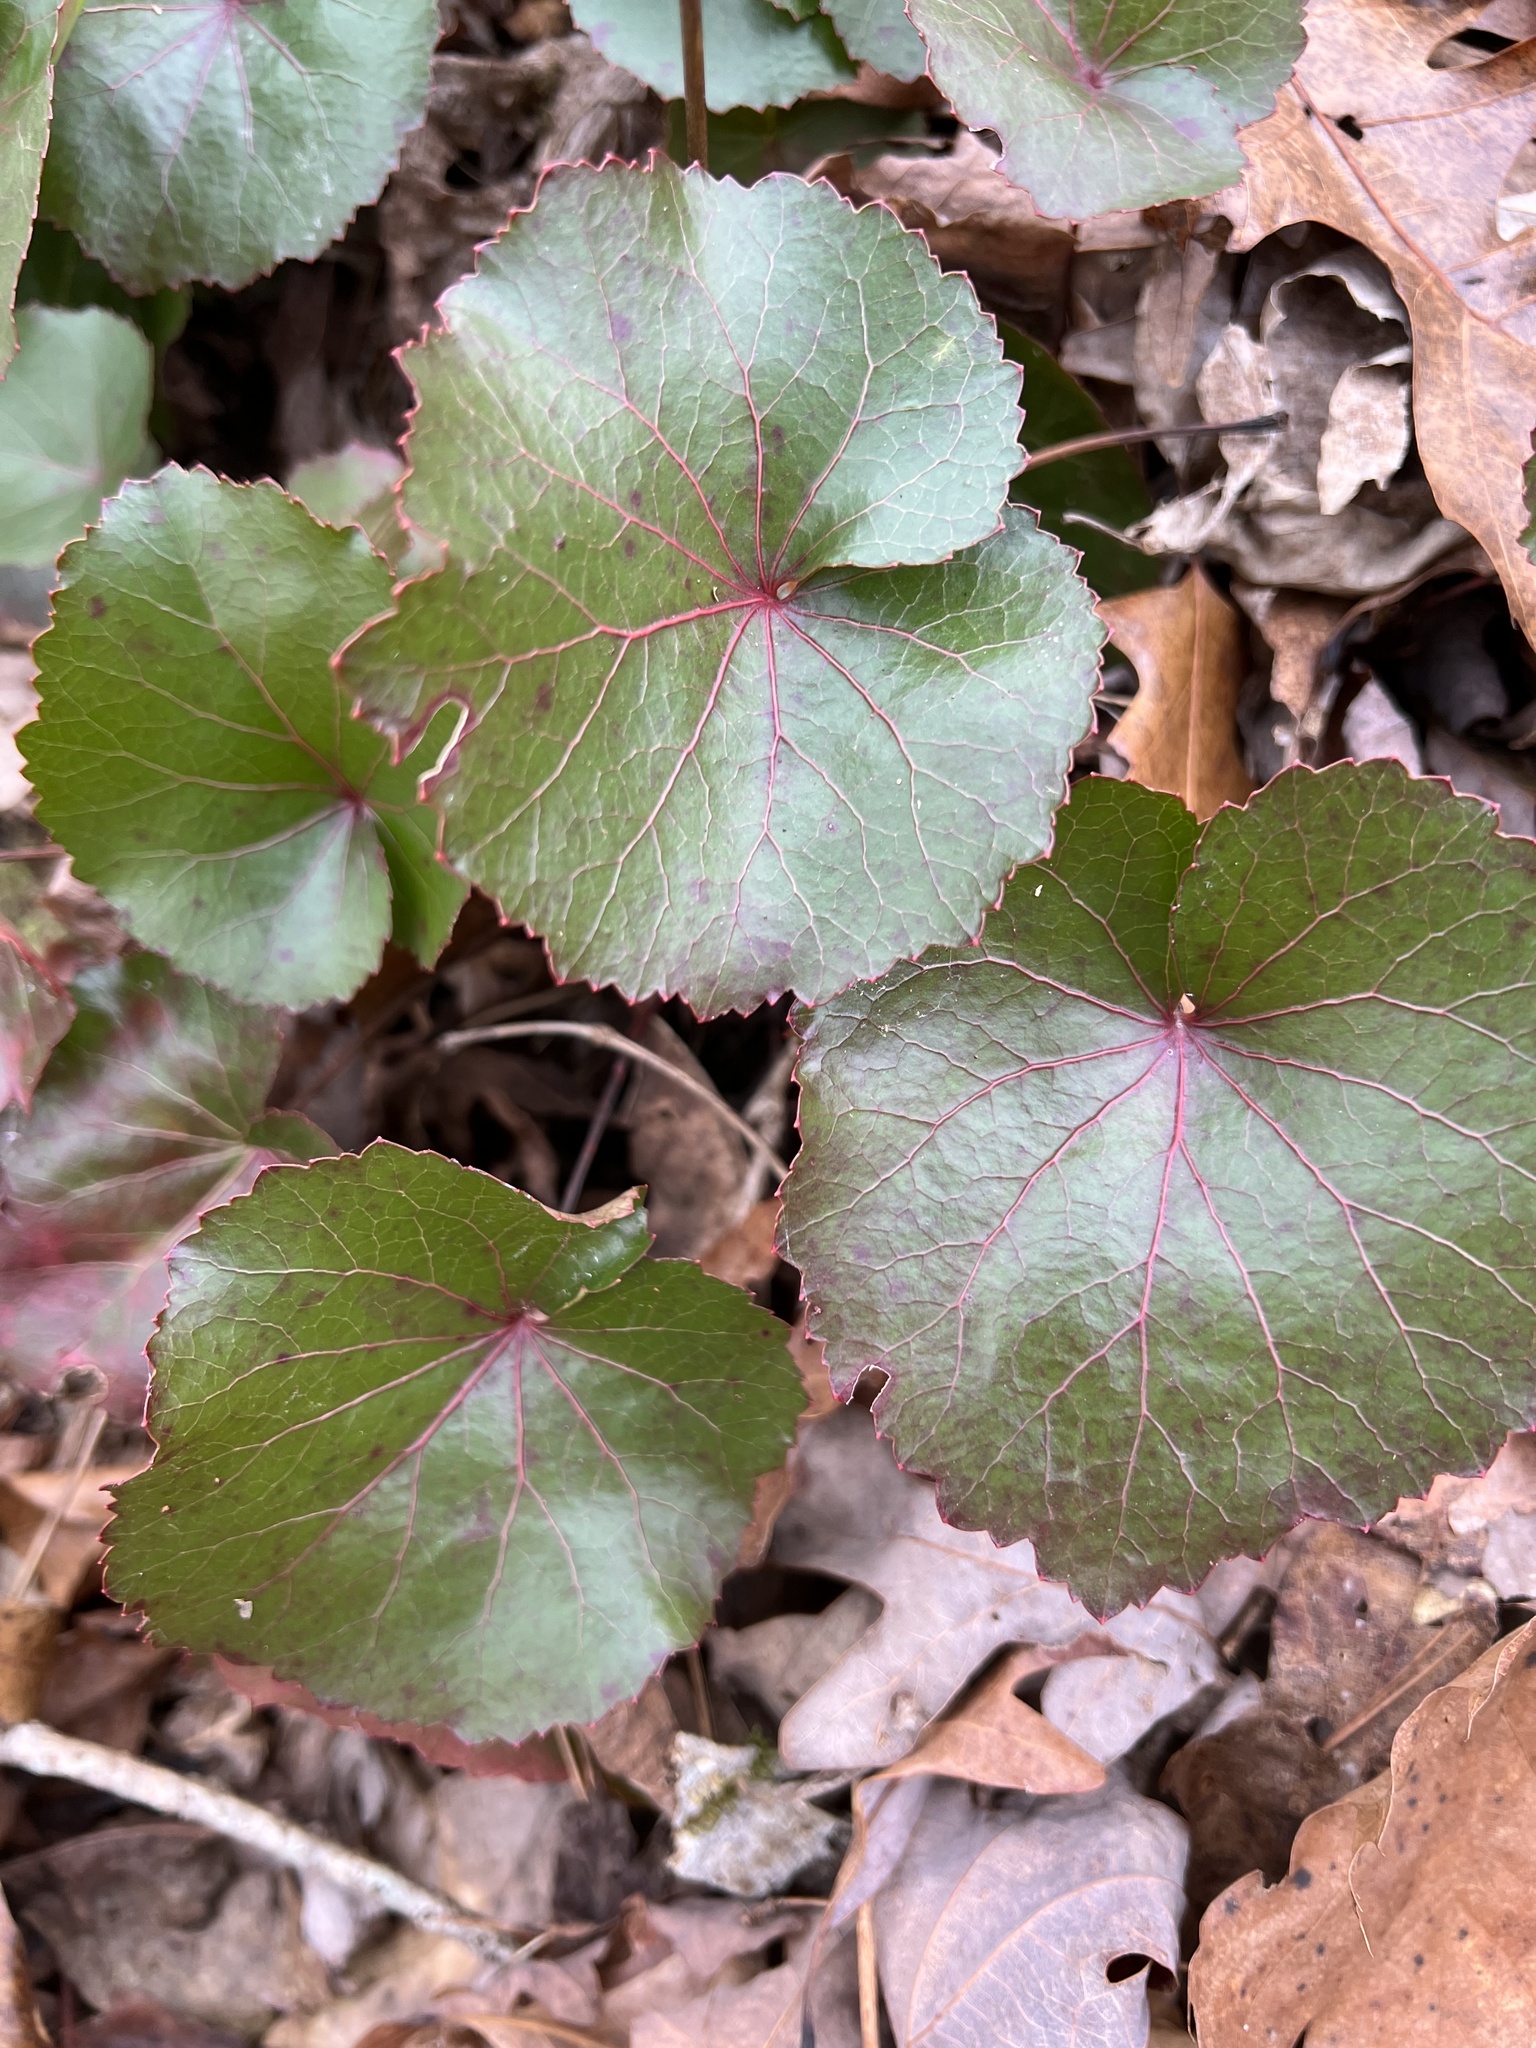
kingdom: Plantae
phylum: Tracheophyta
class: Magnoliopsida
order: Ericales
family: Diapensiaceae
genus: Galax
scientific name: Galax urceolata
